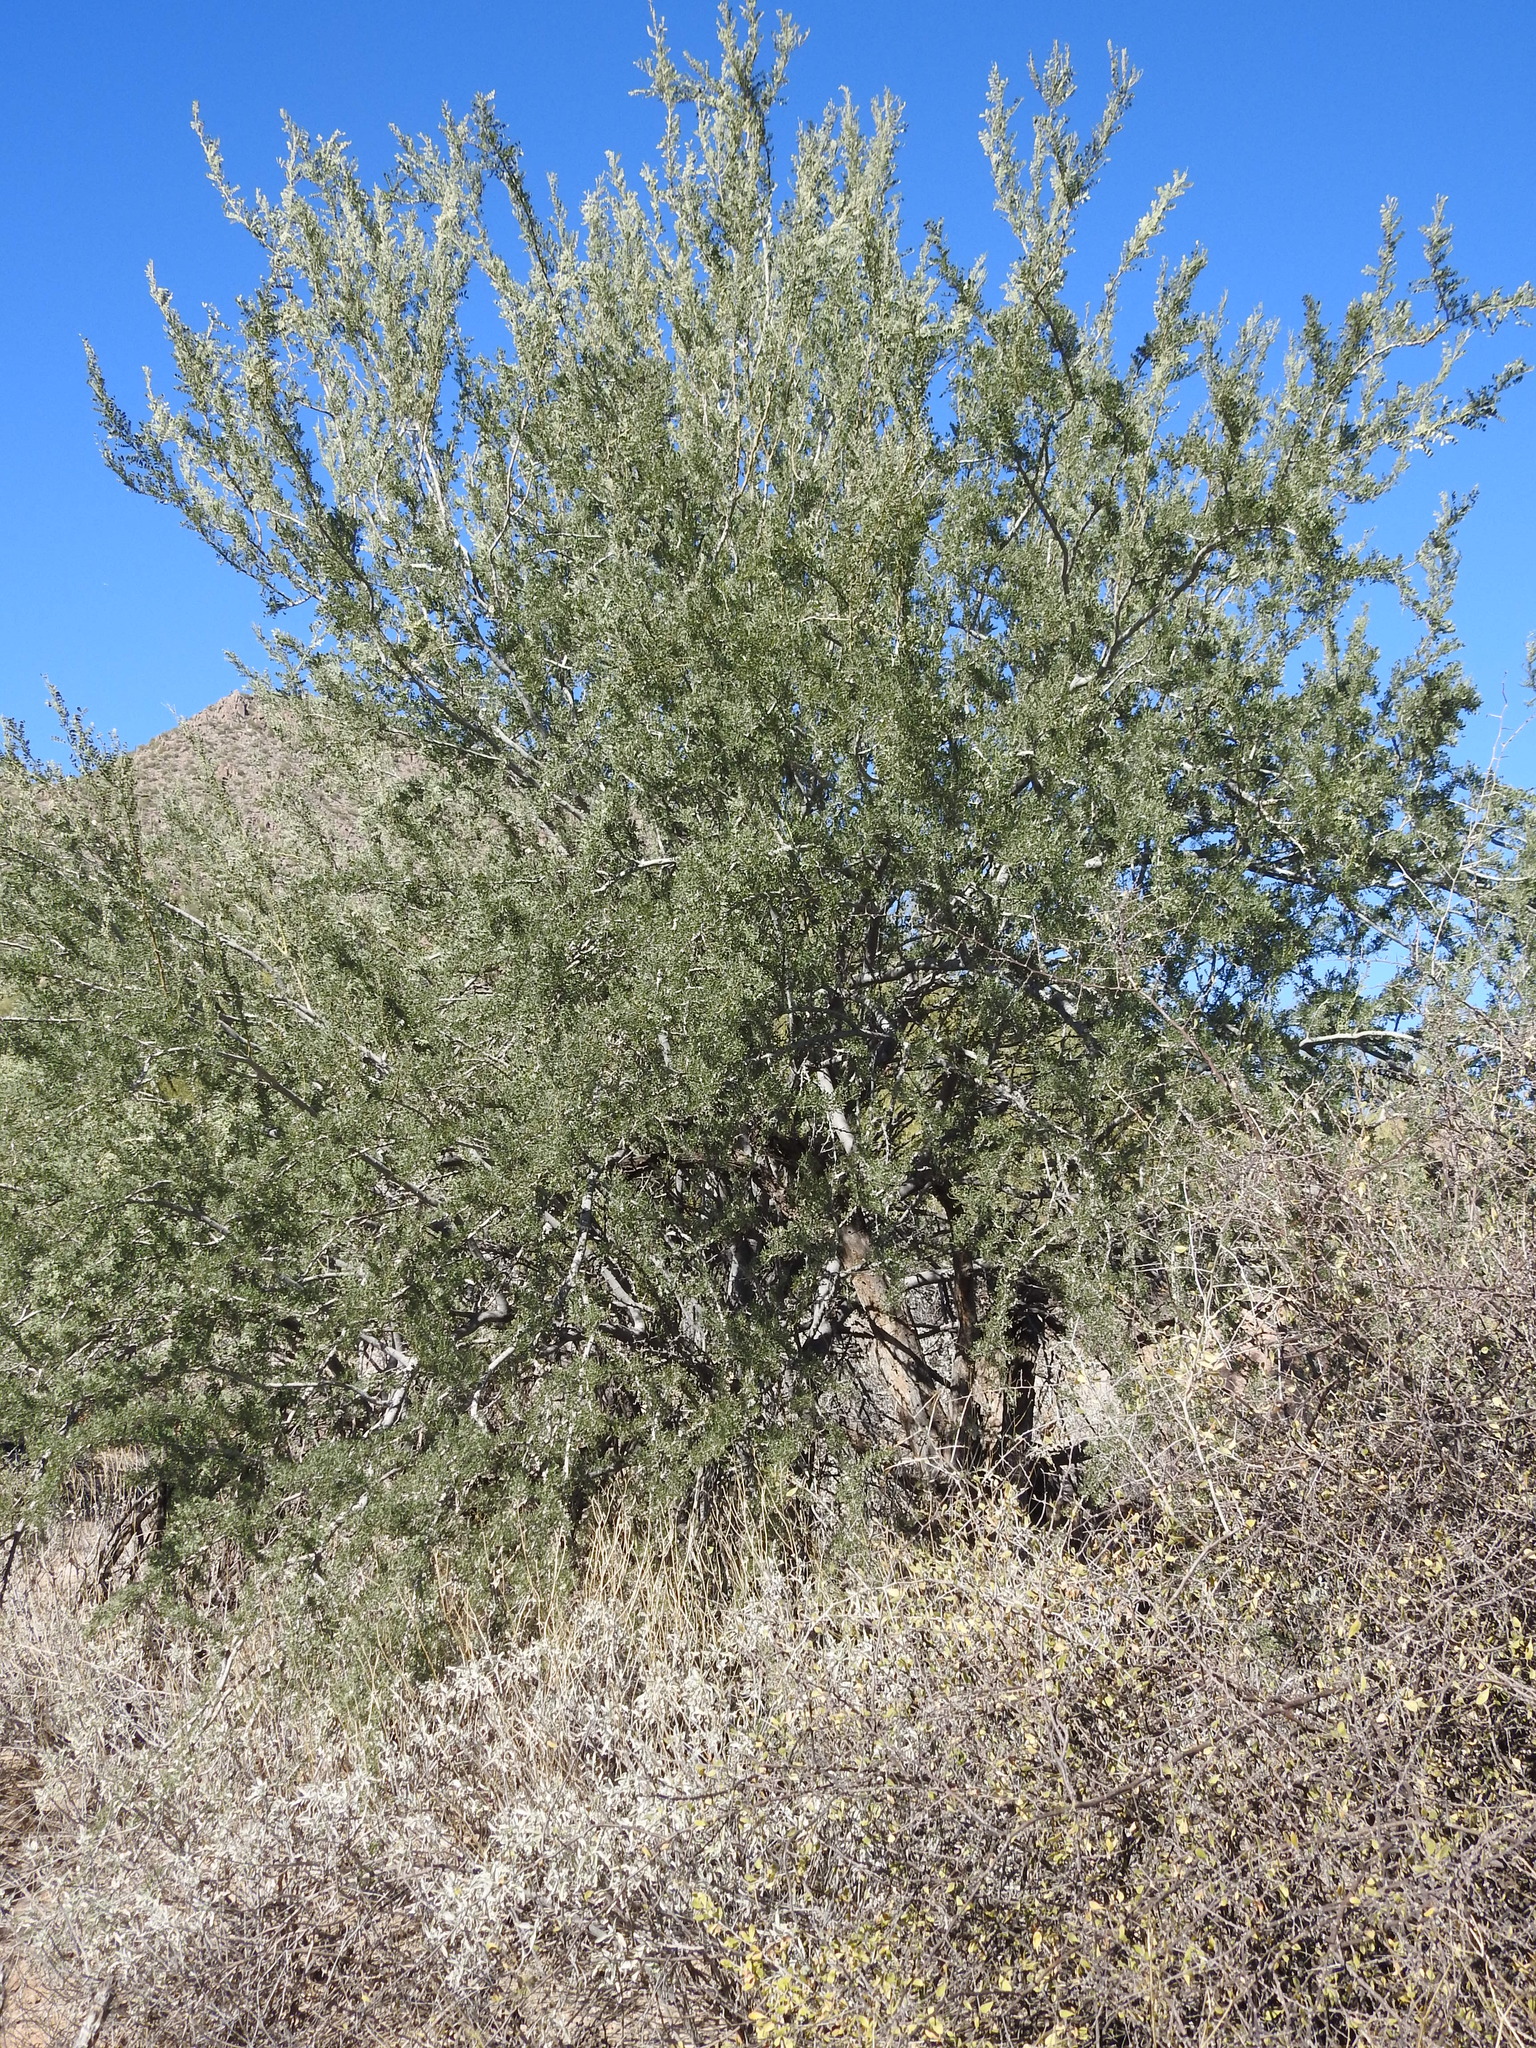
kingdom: Plantae
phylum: Tracheophyta
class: Magnoliopsida
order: Fabales
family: Fabaceae
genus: Olneya
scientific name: Olneya tesota
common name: Desert ironwood
